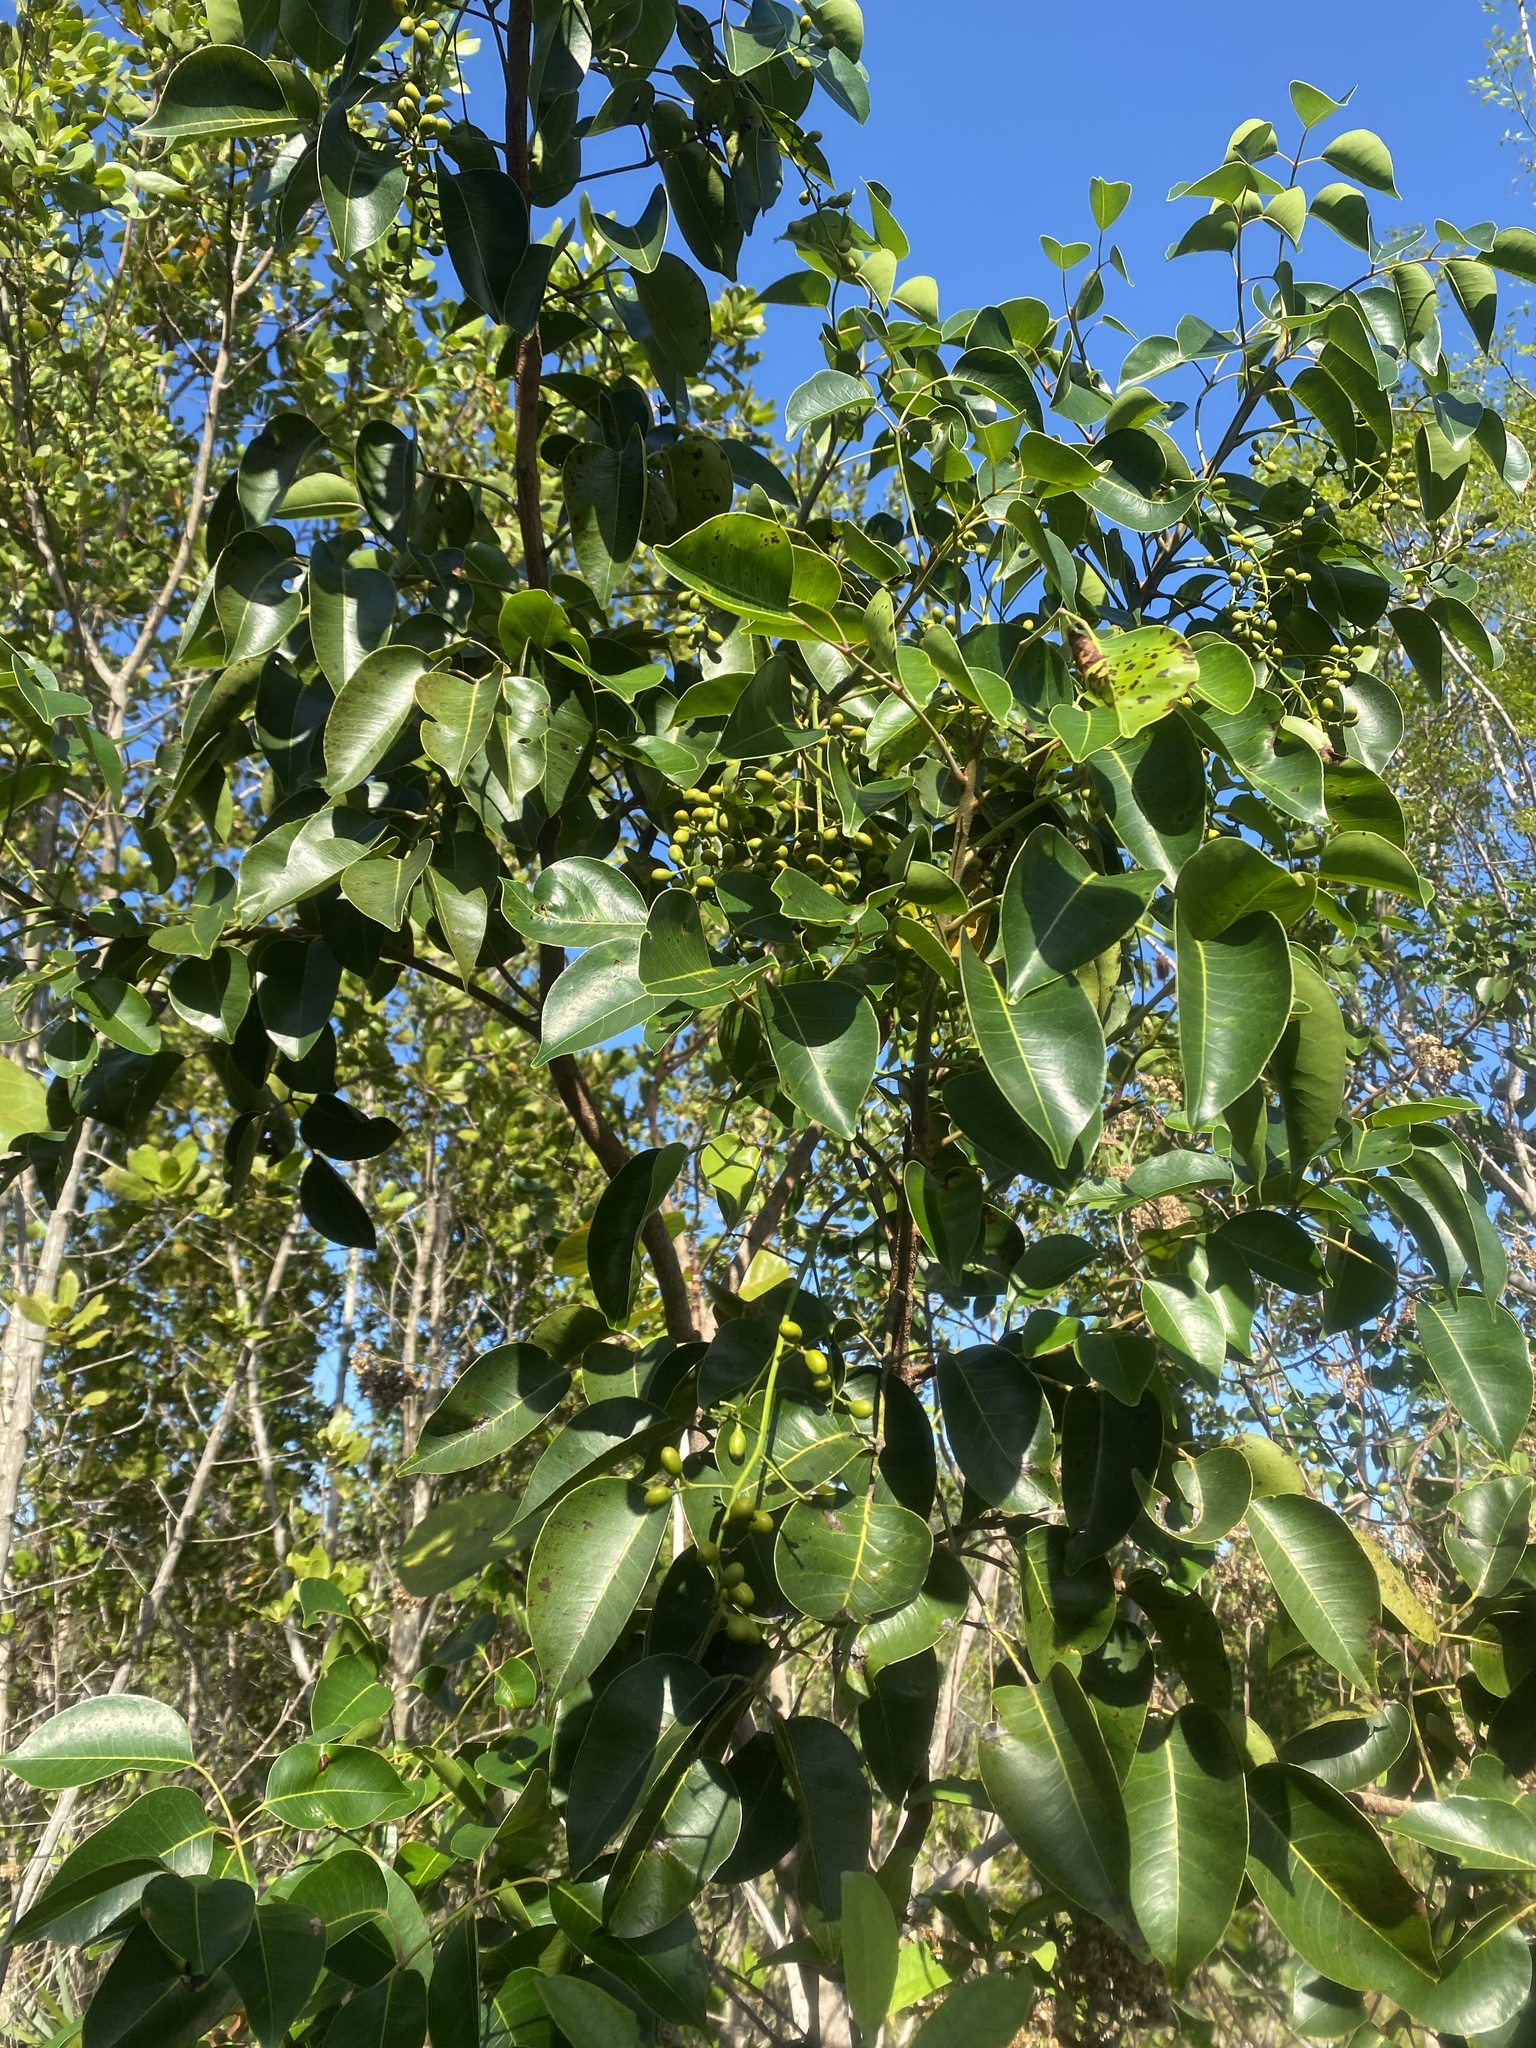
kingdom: Plantae
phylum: Tracheophyta
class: Magnoliopsida
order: Sapindales
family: Anacardiaceae
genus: Metopium
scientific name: Metopium toxiferum
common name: Florida poisontree
